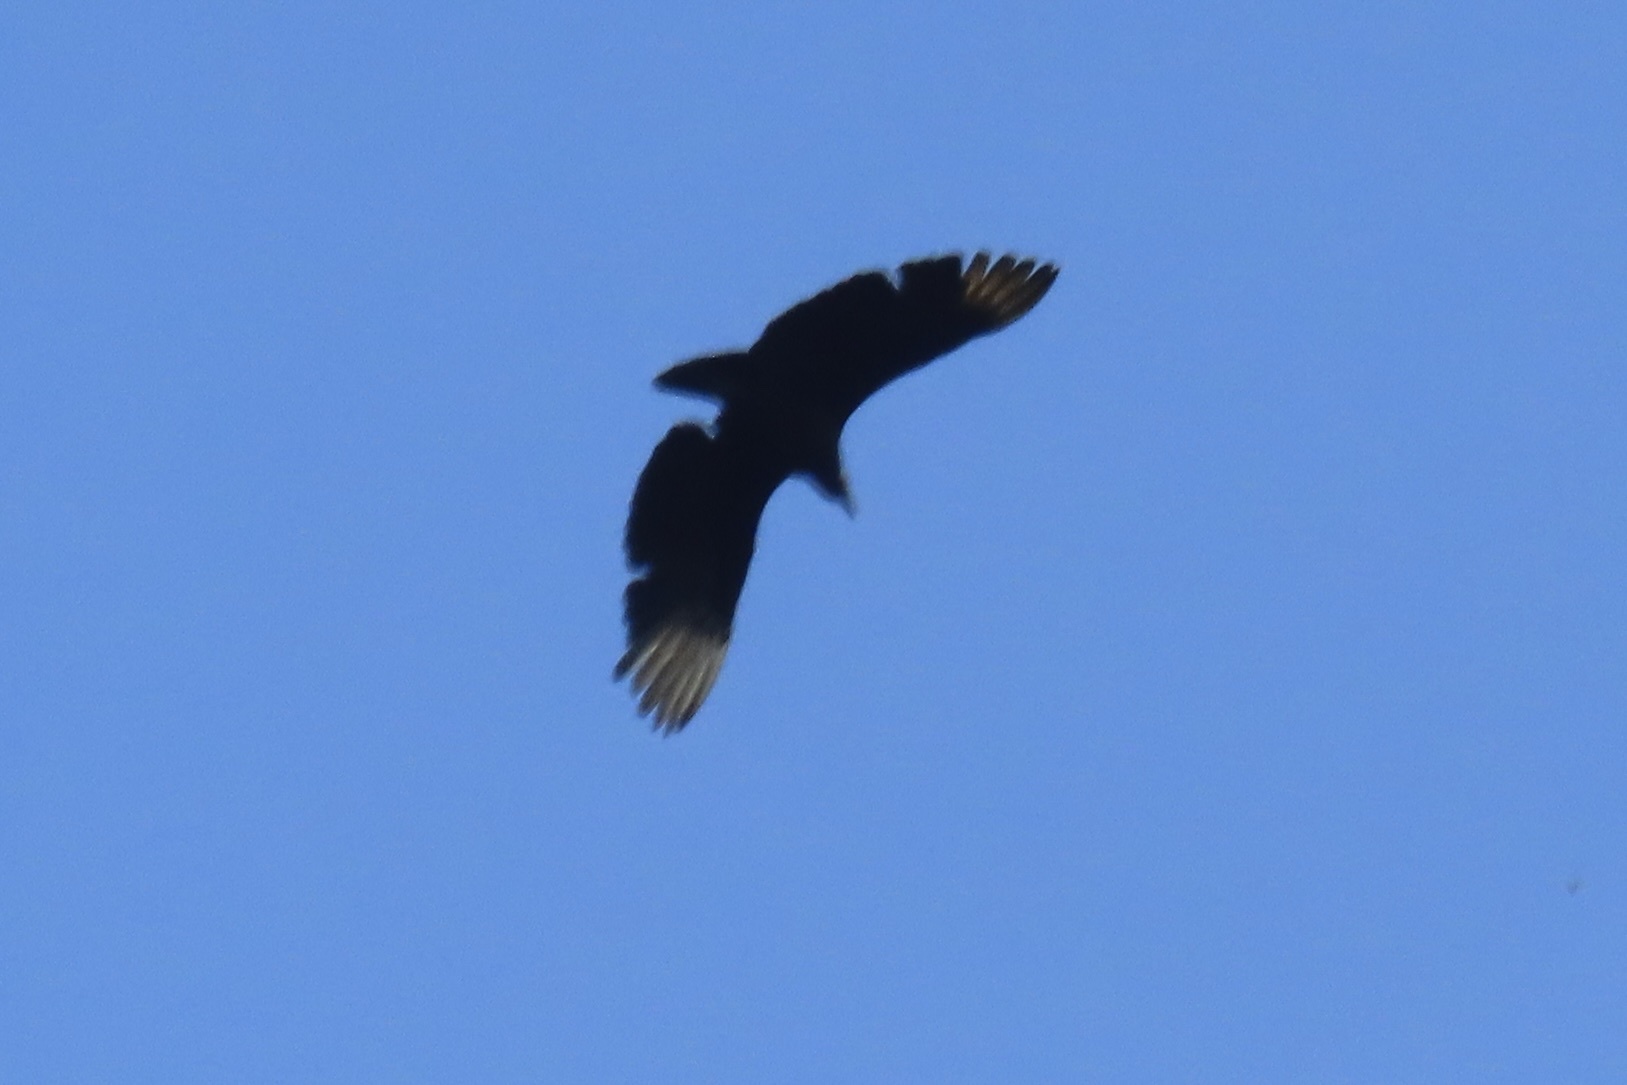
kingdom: Animalia
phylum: Chordata
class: Aves
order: Accipitriformes
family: Cathartidae
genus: Coragyps
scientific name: Coragyps atratus
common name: Black vulture
